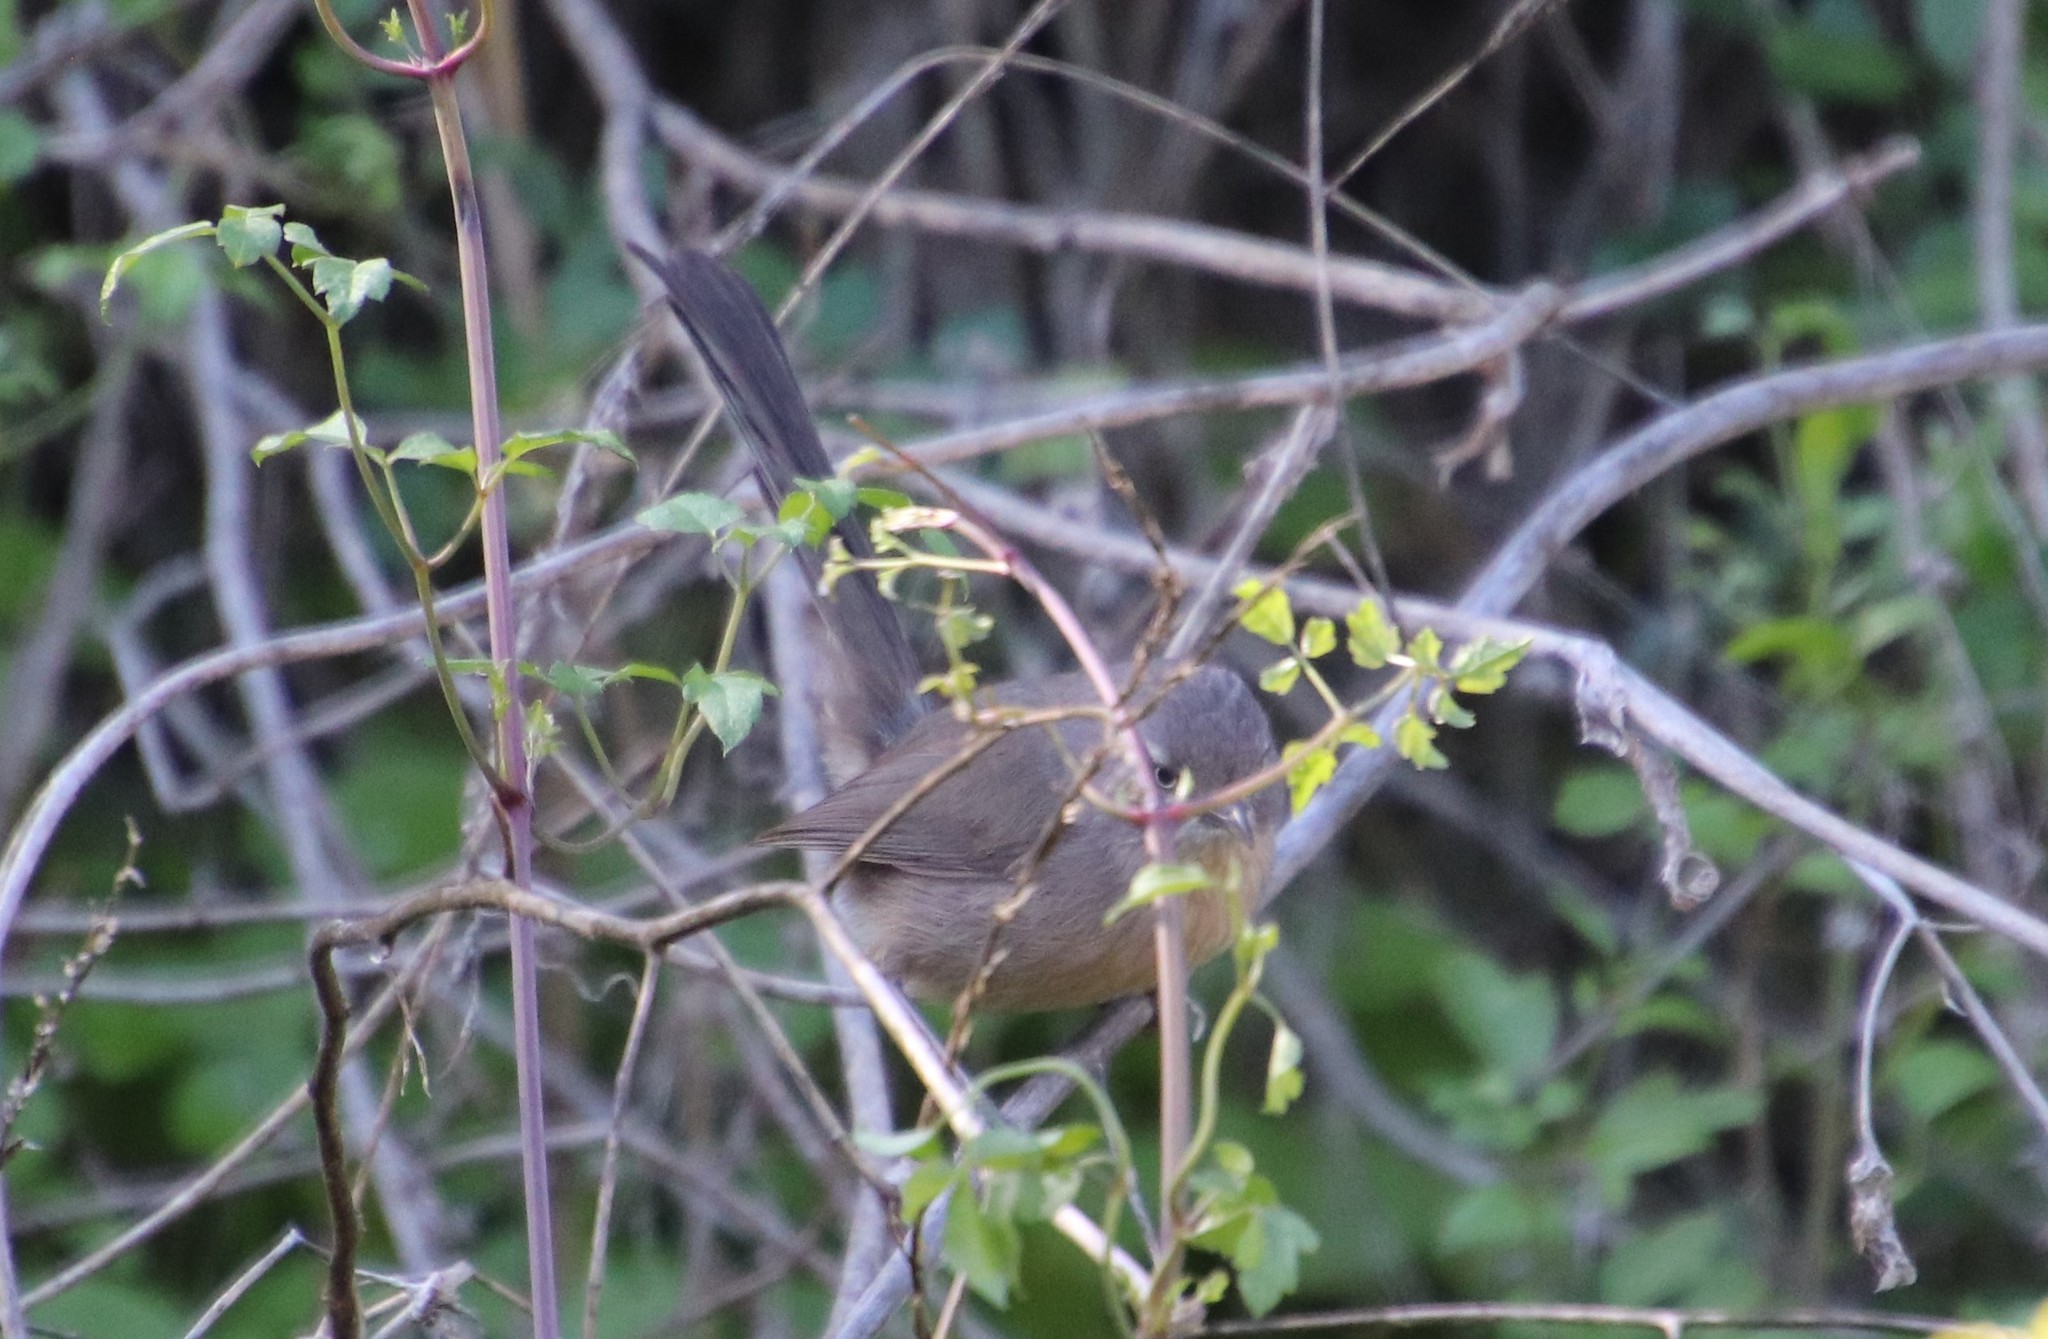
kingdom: Animalia
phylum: Chordata
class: Aves
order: Passeriformes
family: Sylviidae
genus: Chamaea
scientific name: Chamaea fasciata
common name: Wrentit
